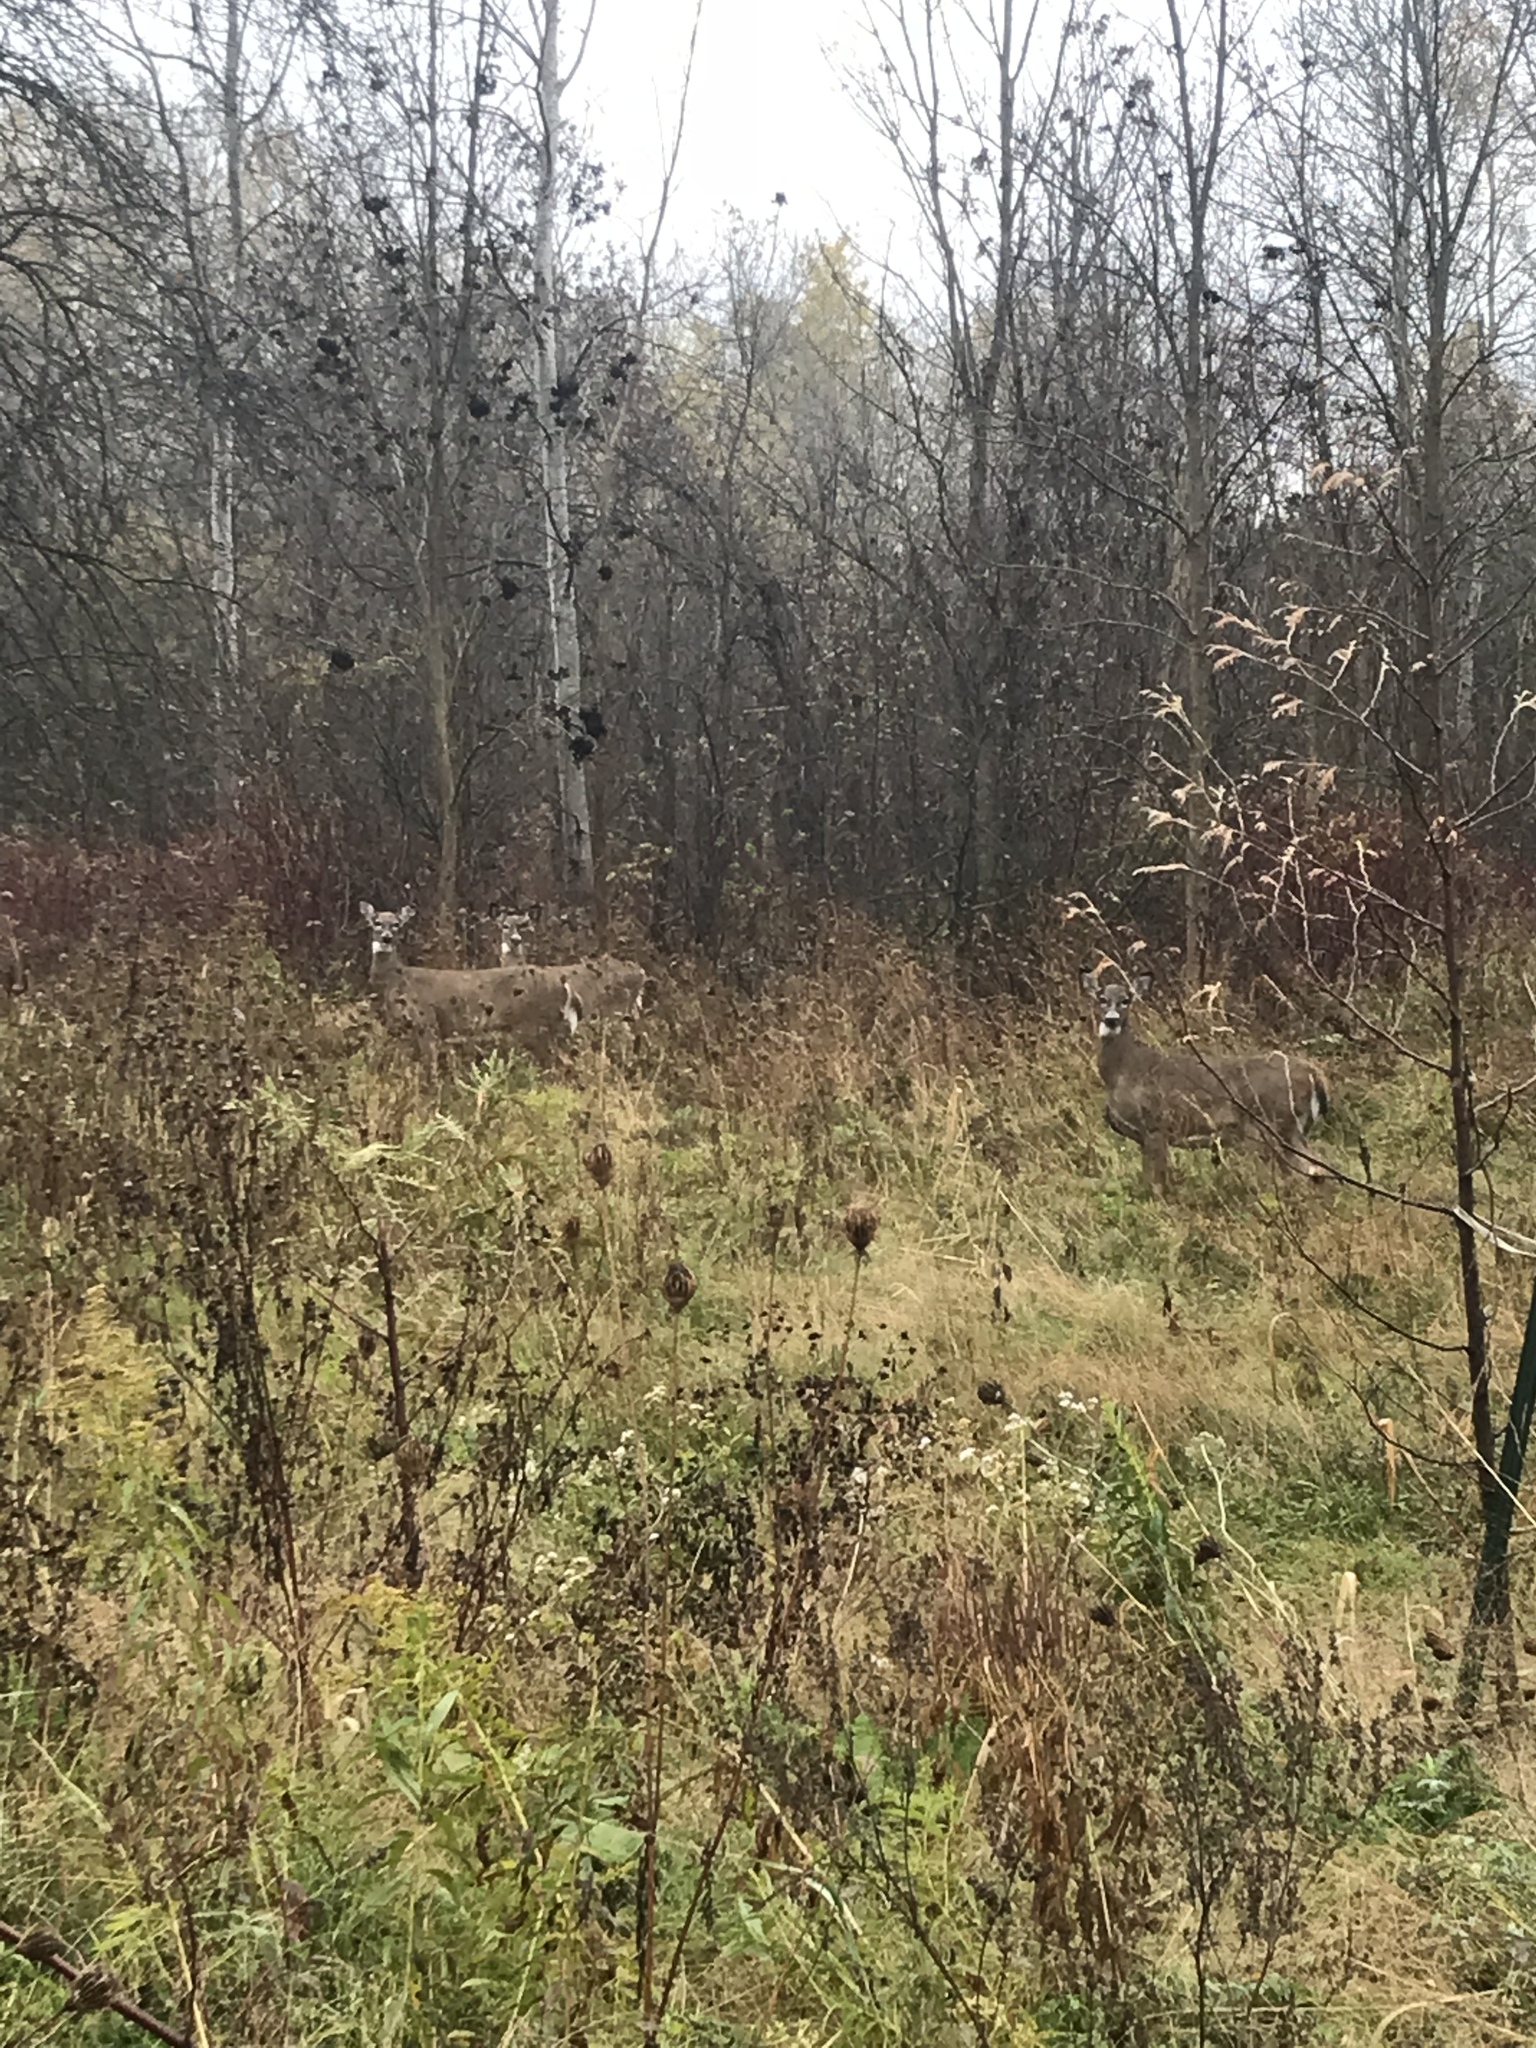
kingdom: Animalia
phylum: Chordata
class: Mammalia
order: Artiodactyla
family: Cervidae
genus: Odocoileus
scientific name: Odocoileus virginianus
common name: White-tailed deer
